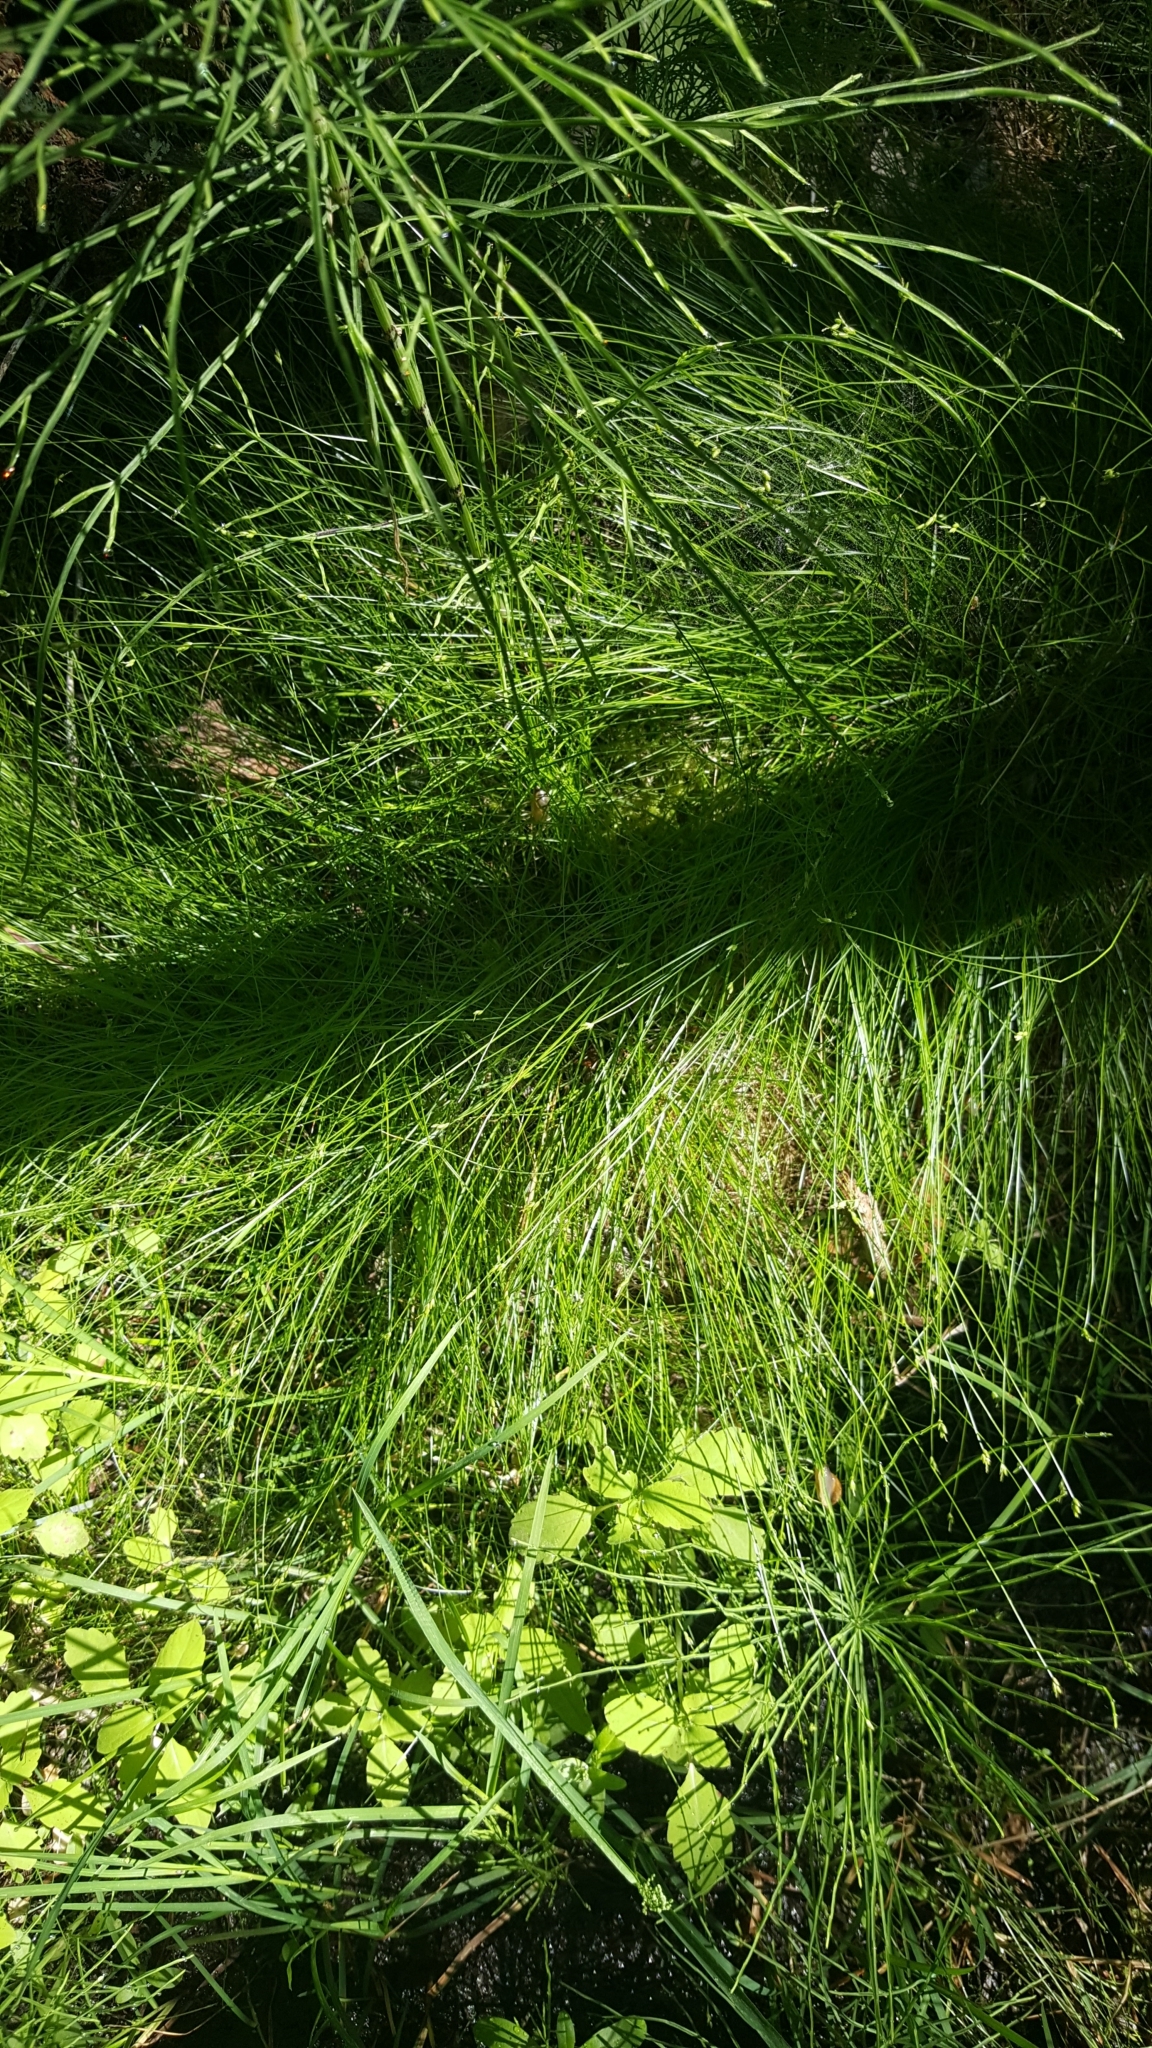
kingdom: Plantae
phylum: Tracheophyta
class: Liliopsida
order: Poales
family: Cyperaceae
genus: Carex
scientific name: Carex leptalea
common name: Bristly-stalked sedge
